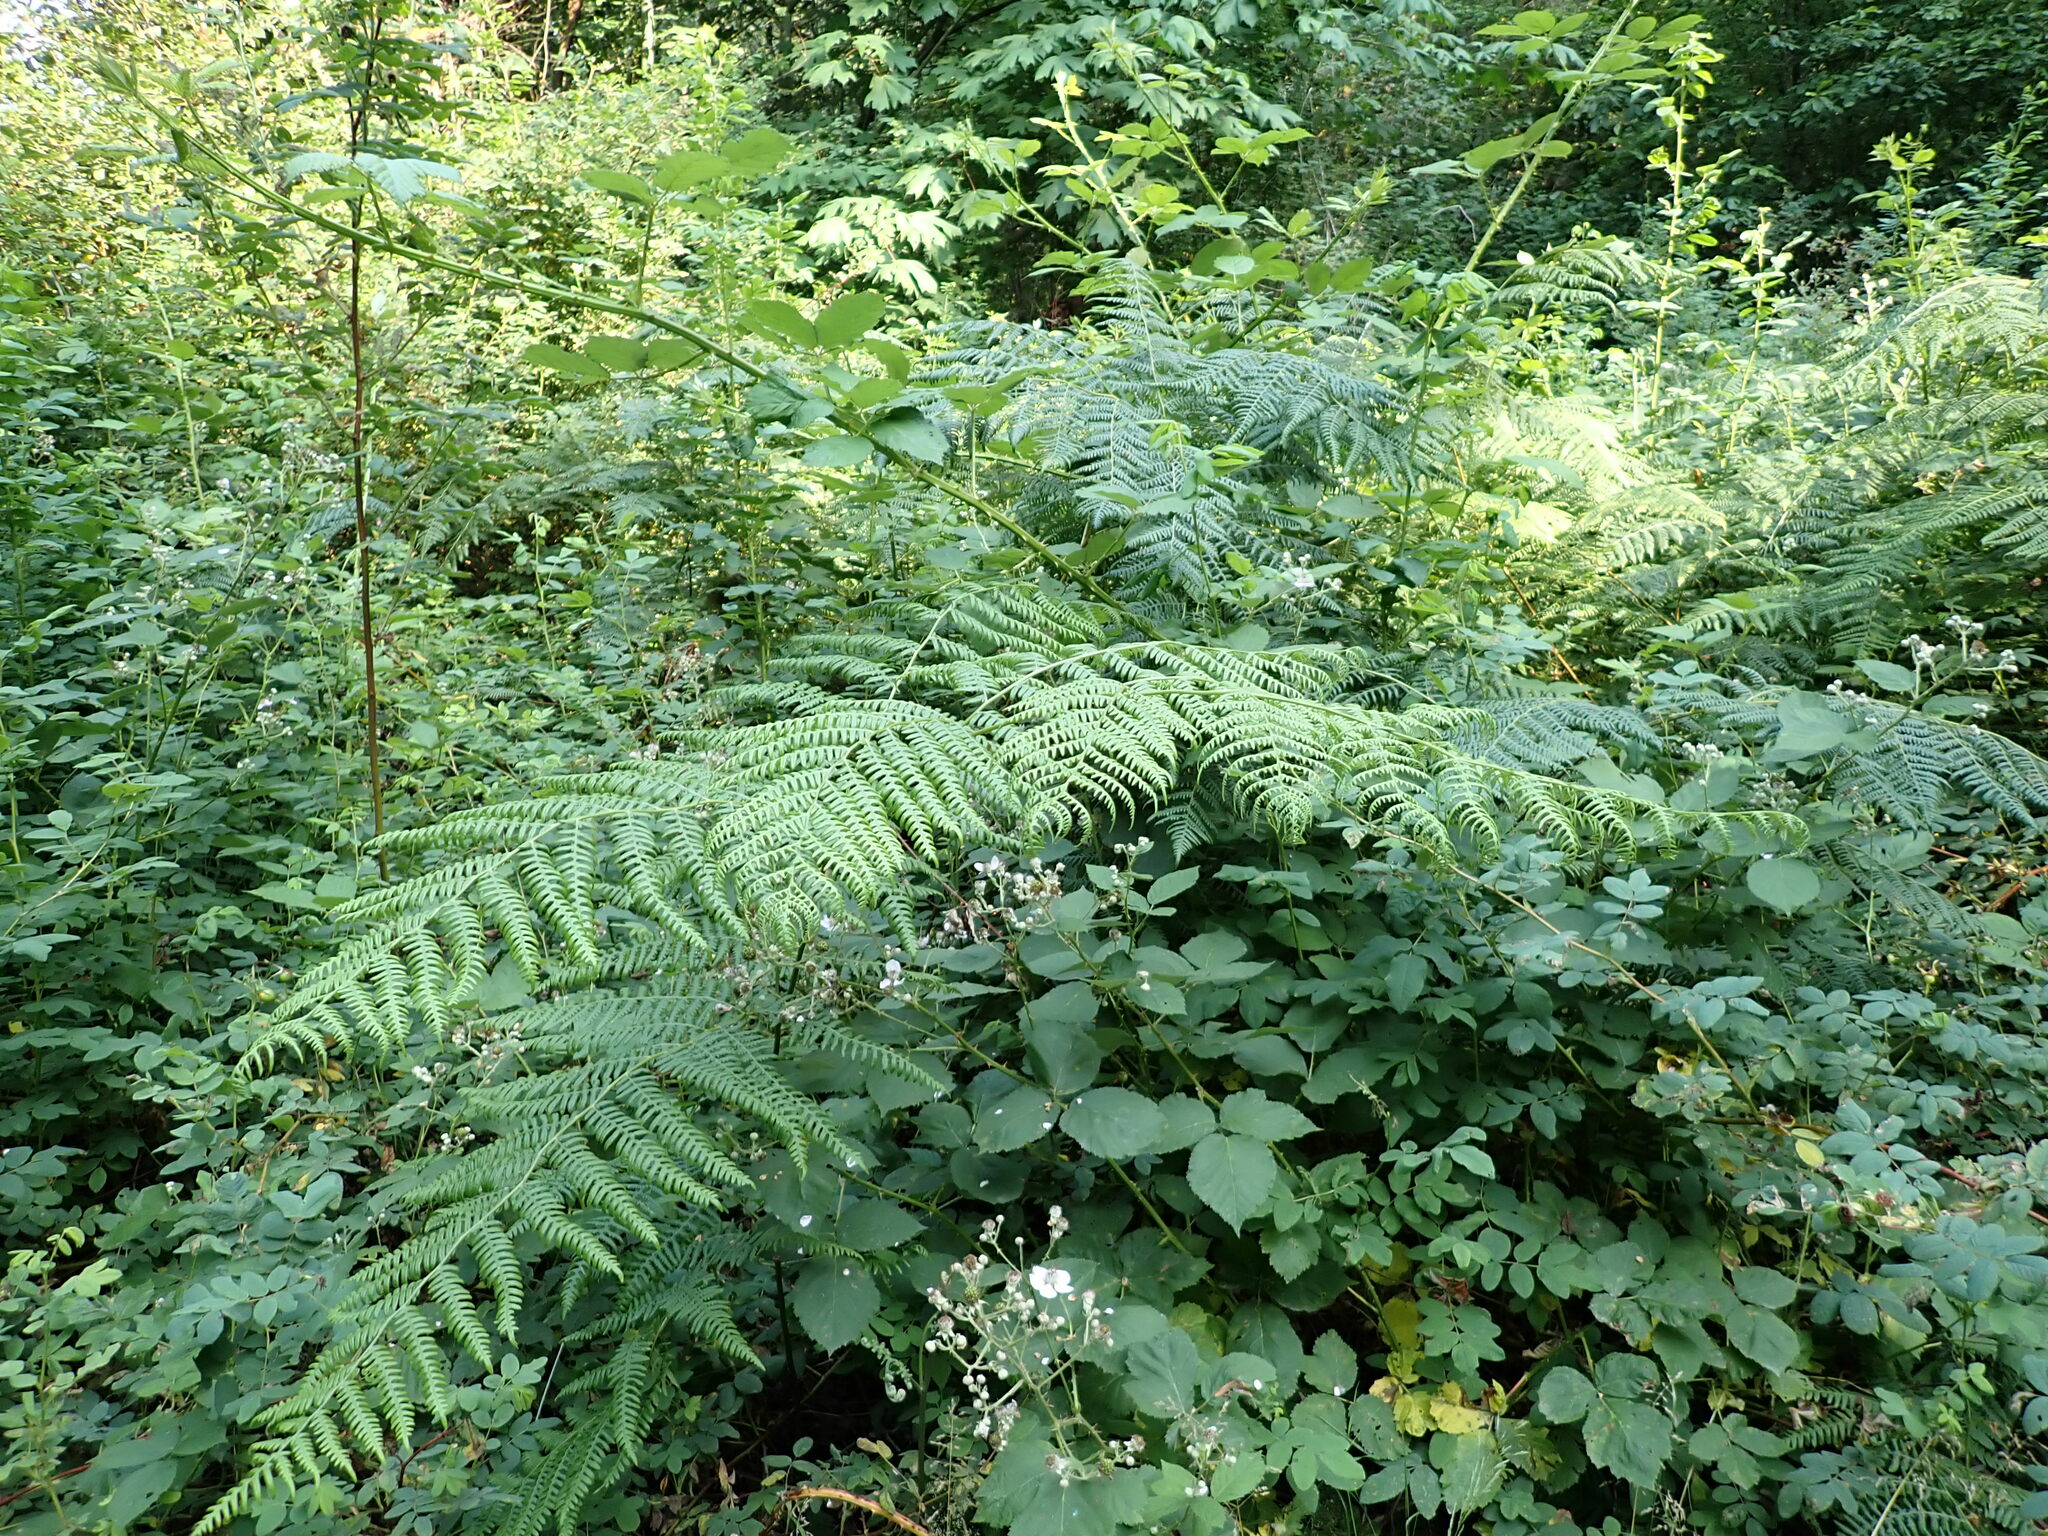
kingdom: Plantae
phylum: Tracheophyta
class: Polypodiopsida
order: Polypodiales
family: Dennstaedtiaceae
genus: Pteridium
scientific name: Pteridium aquilinum
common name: Bracken
